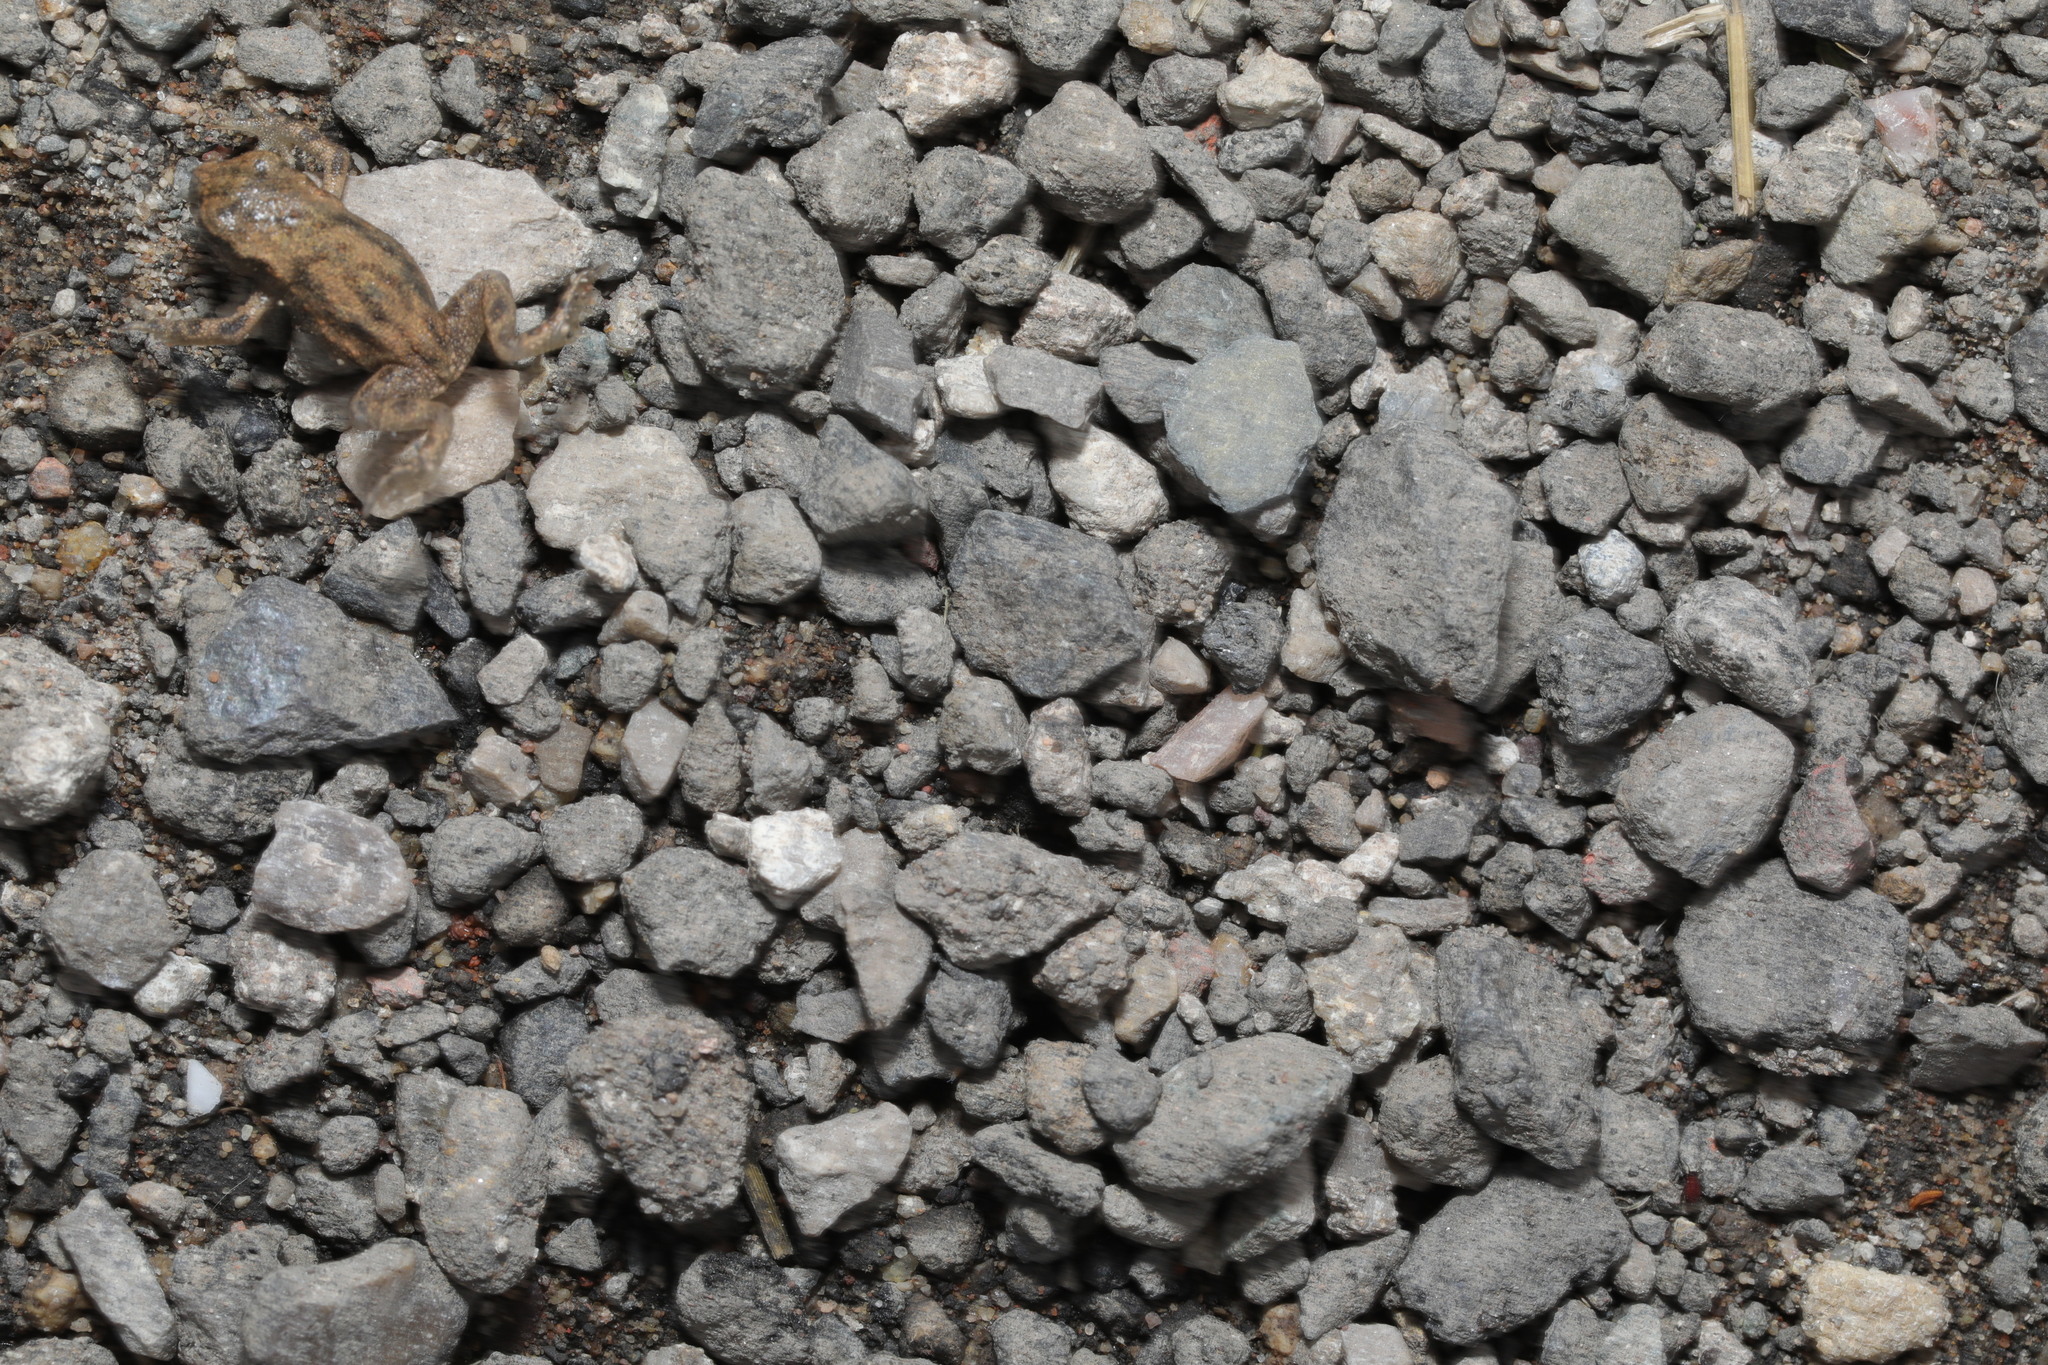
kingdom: Animalia
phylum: Chordata
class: Amphibia
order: Anura
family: Bufonidae
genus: Bufo
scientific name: Bufo bufo
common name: Common toad
